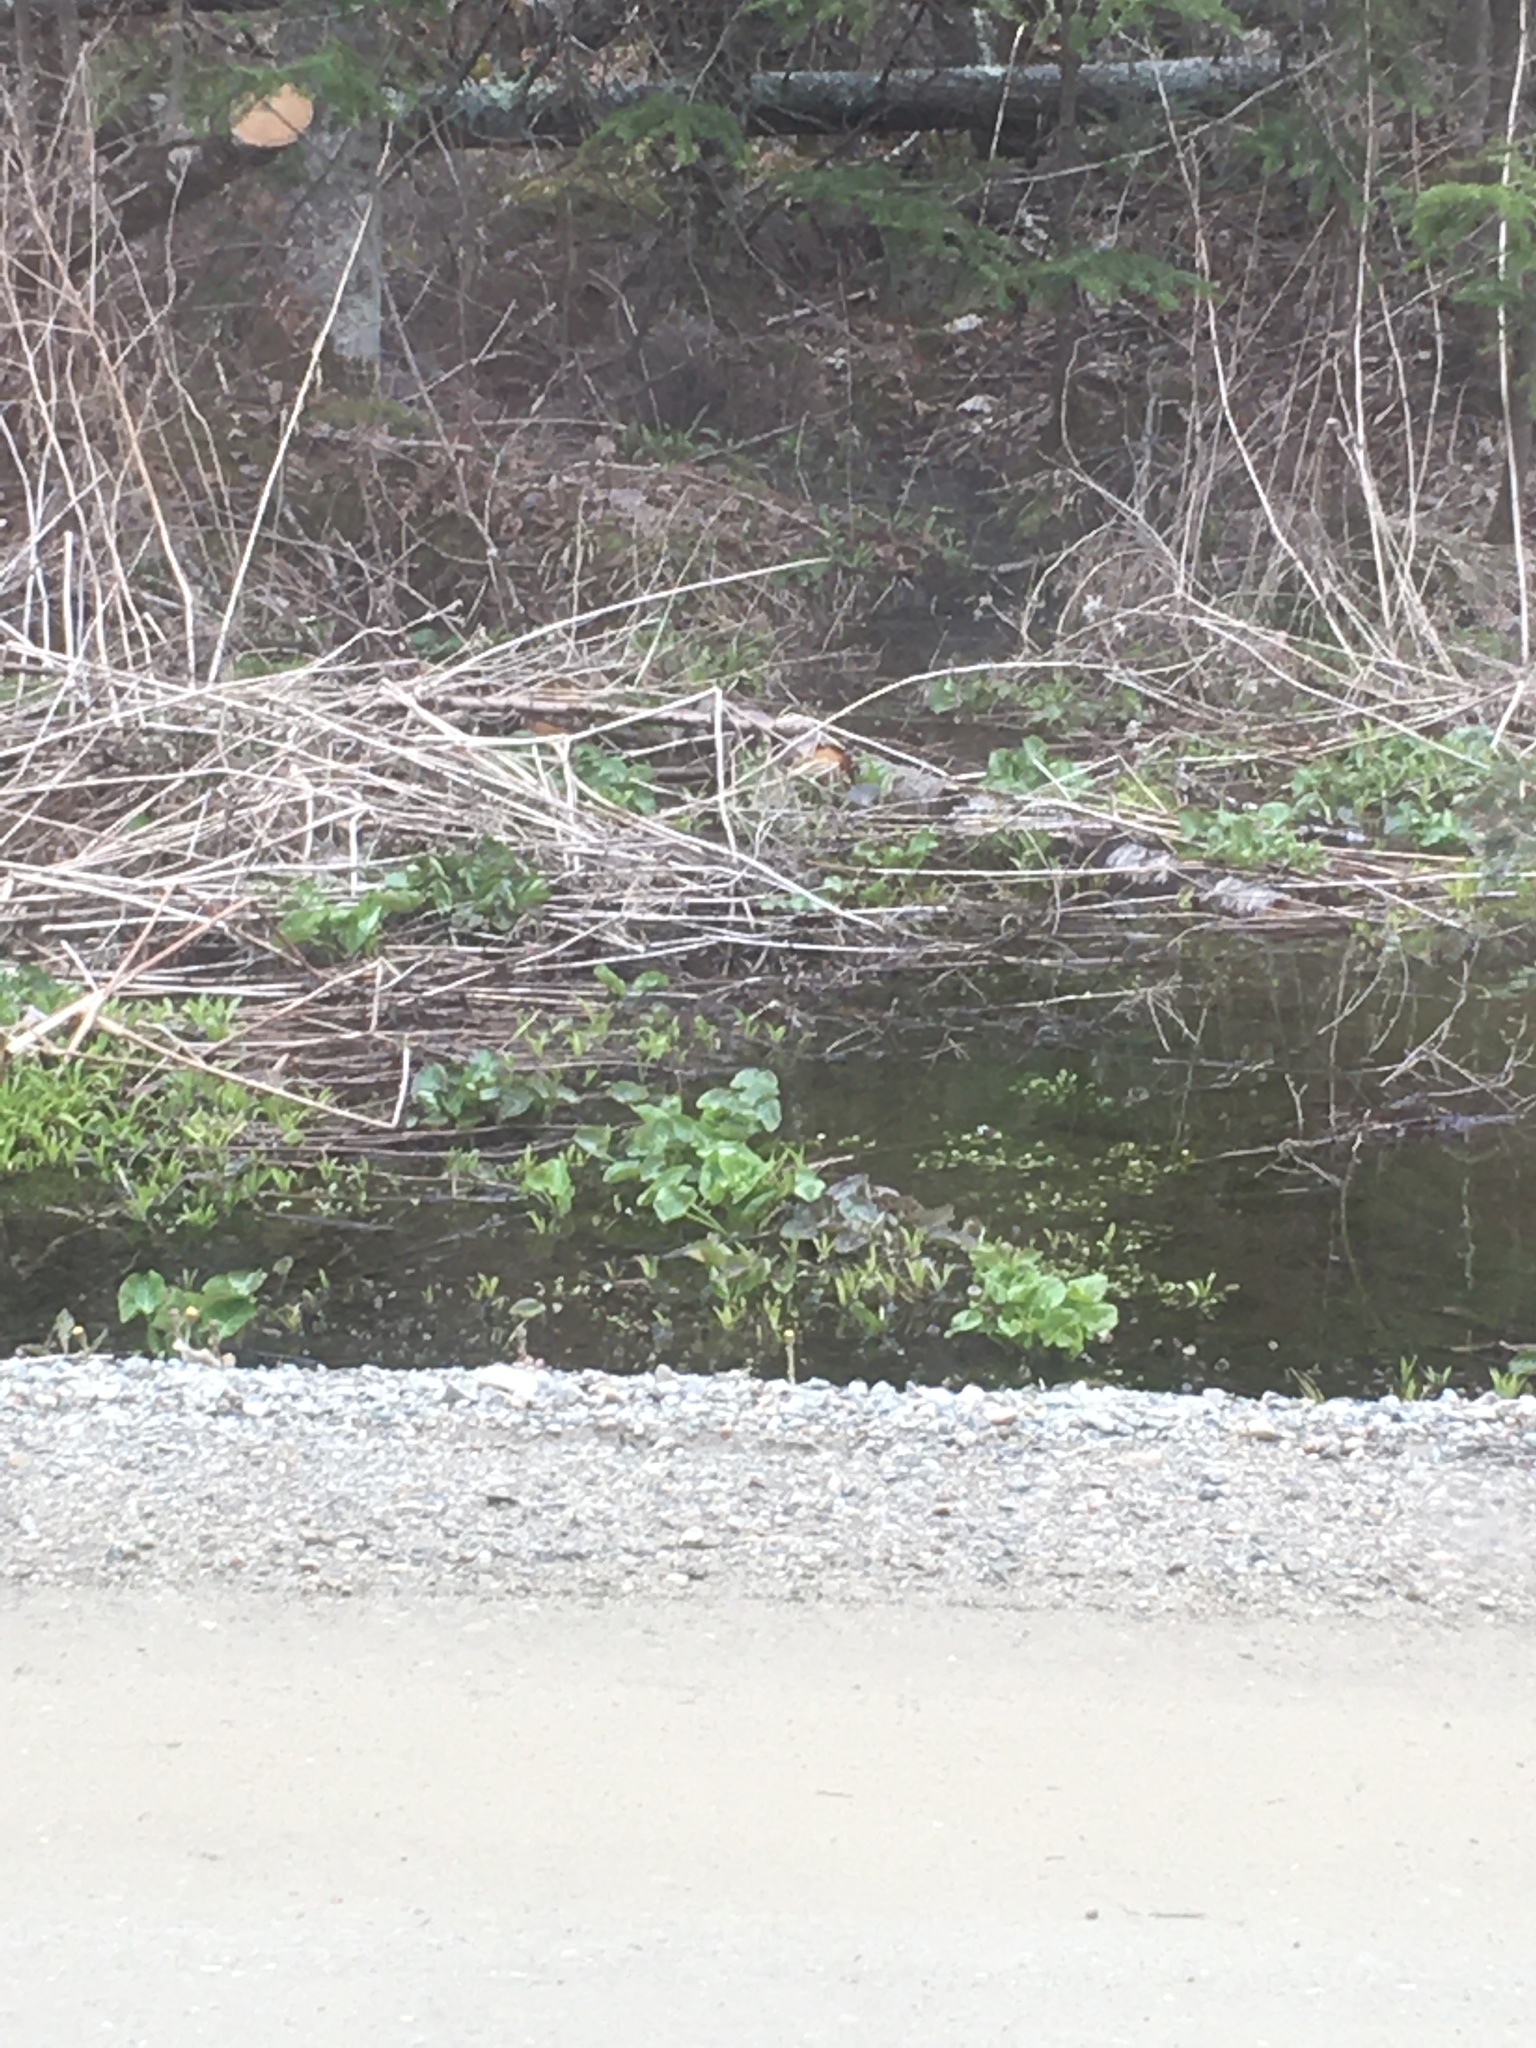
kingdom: Plantae
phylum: Tracheophyta
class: Magnoliopsida
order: Ranunculales
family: Ranunculaceae
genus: Caltha
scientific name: Caltha palustris
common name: Marsh marigold
